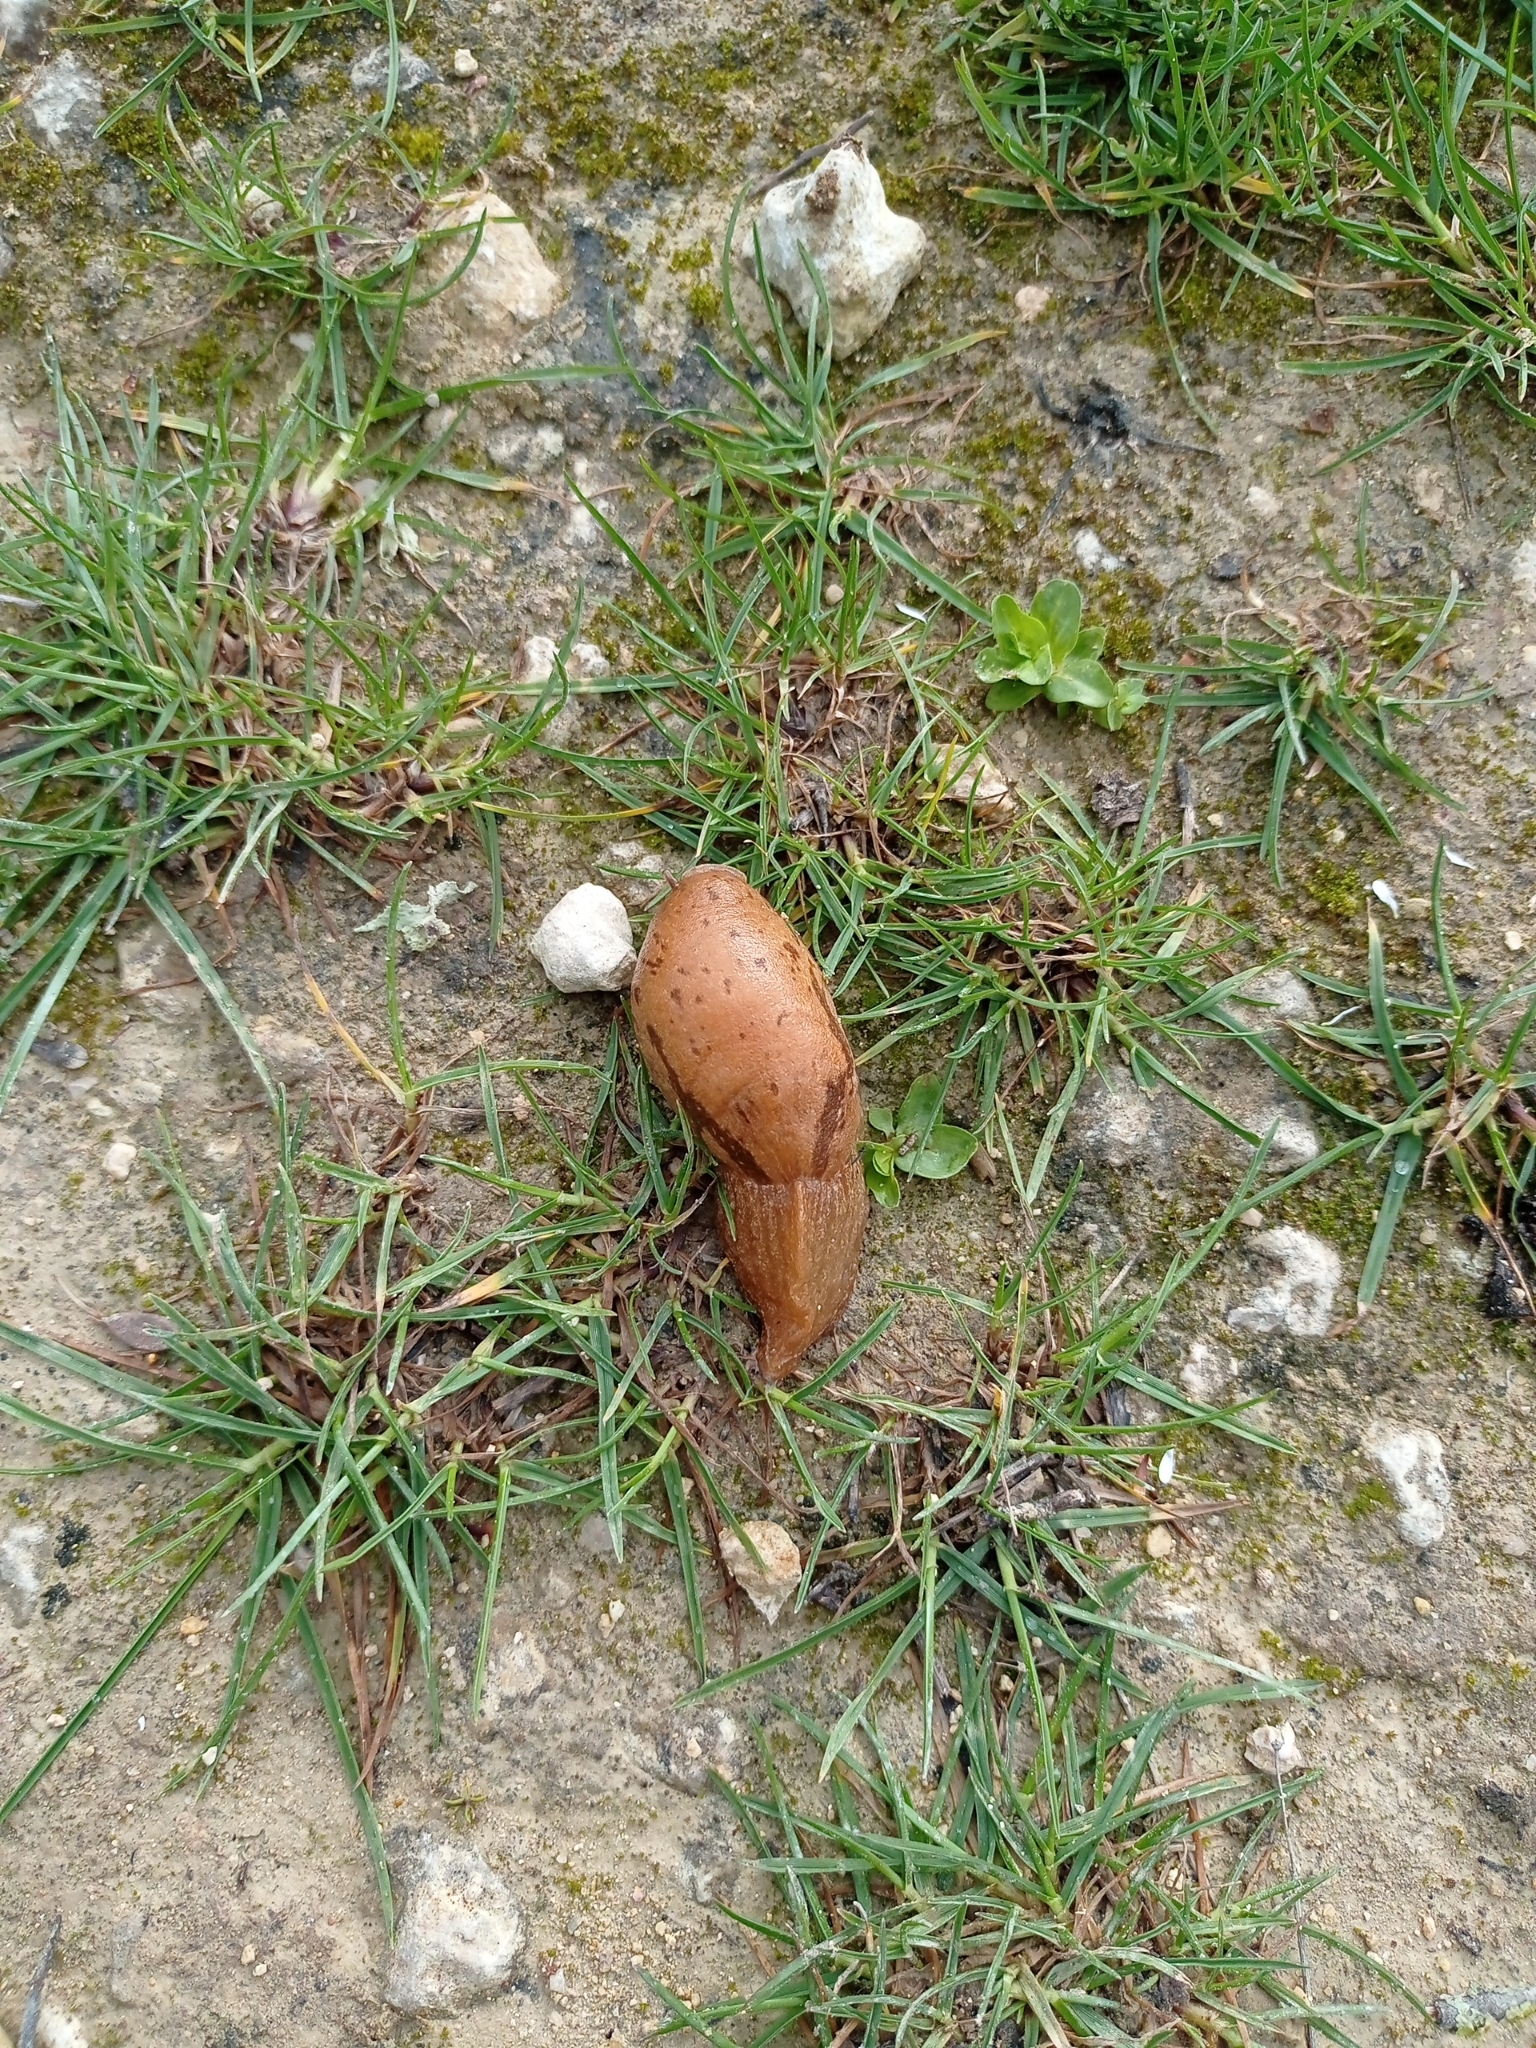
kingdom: Animalia
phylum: Mollusca
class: Gastropoda
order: Stylommatophora
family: Parmacellidae
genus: Drusia
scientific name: Drusia valenciennii
